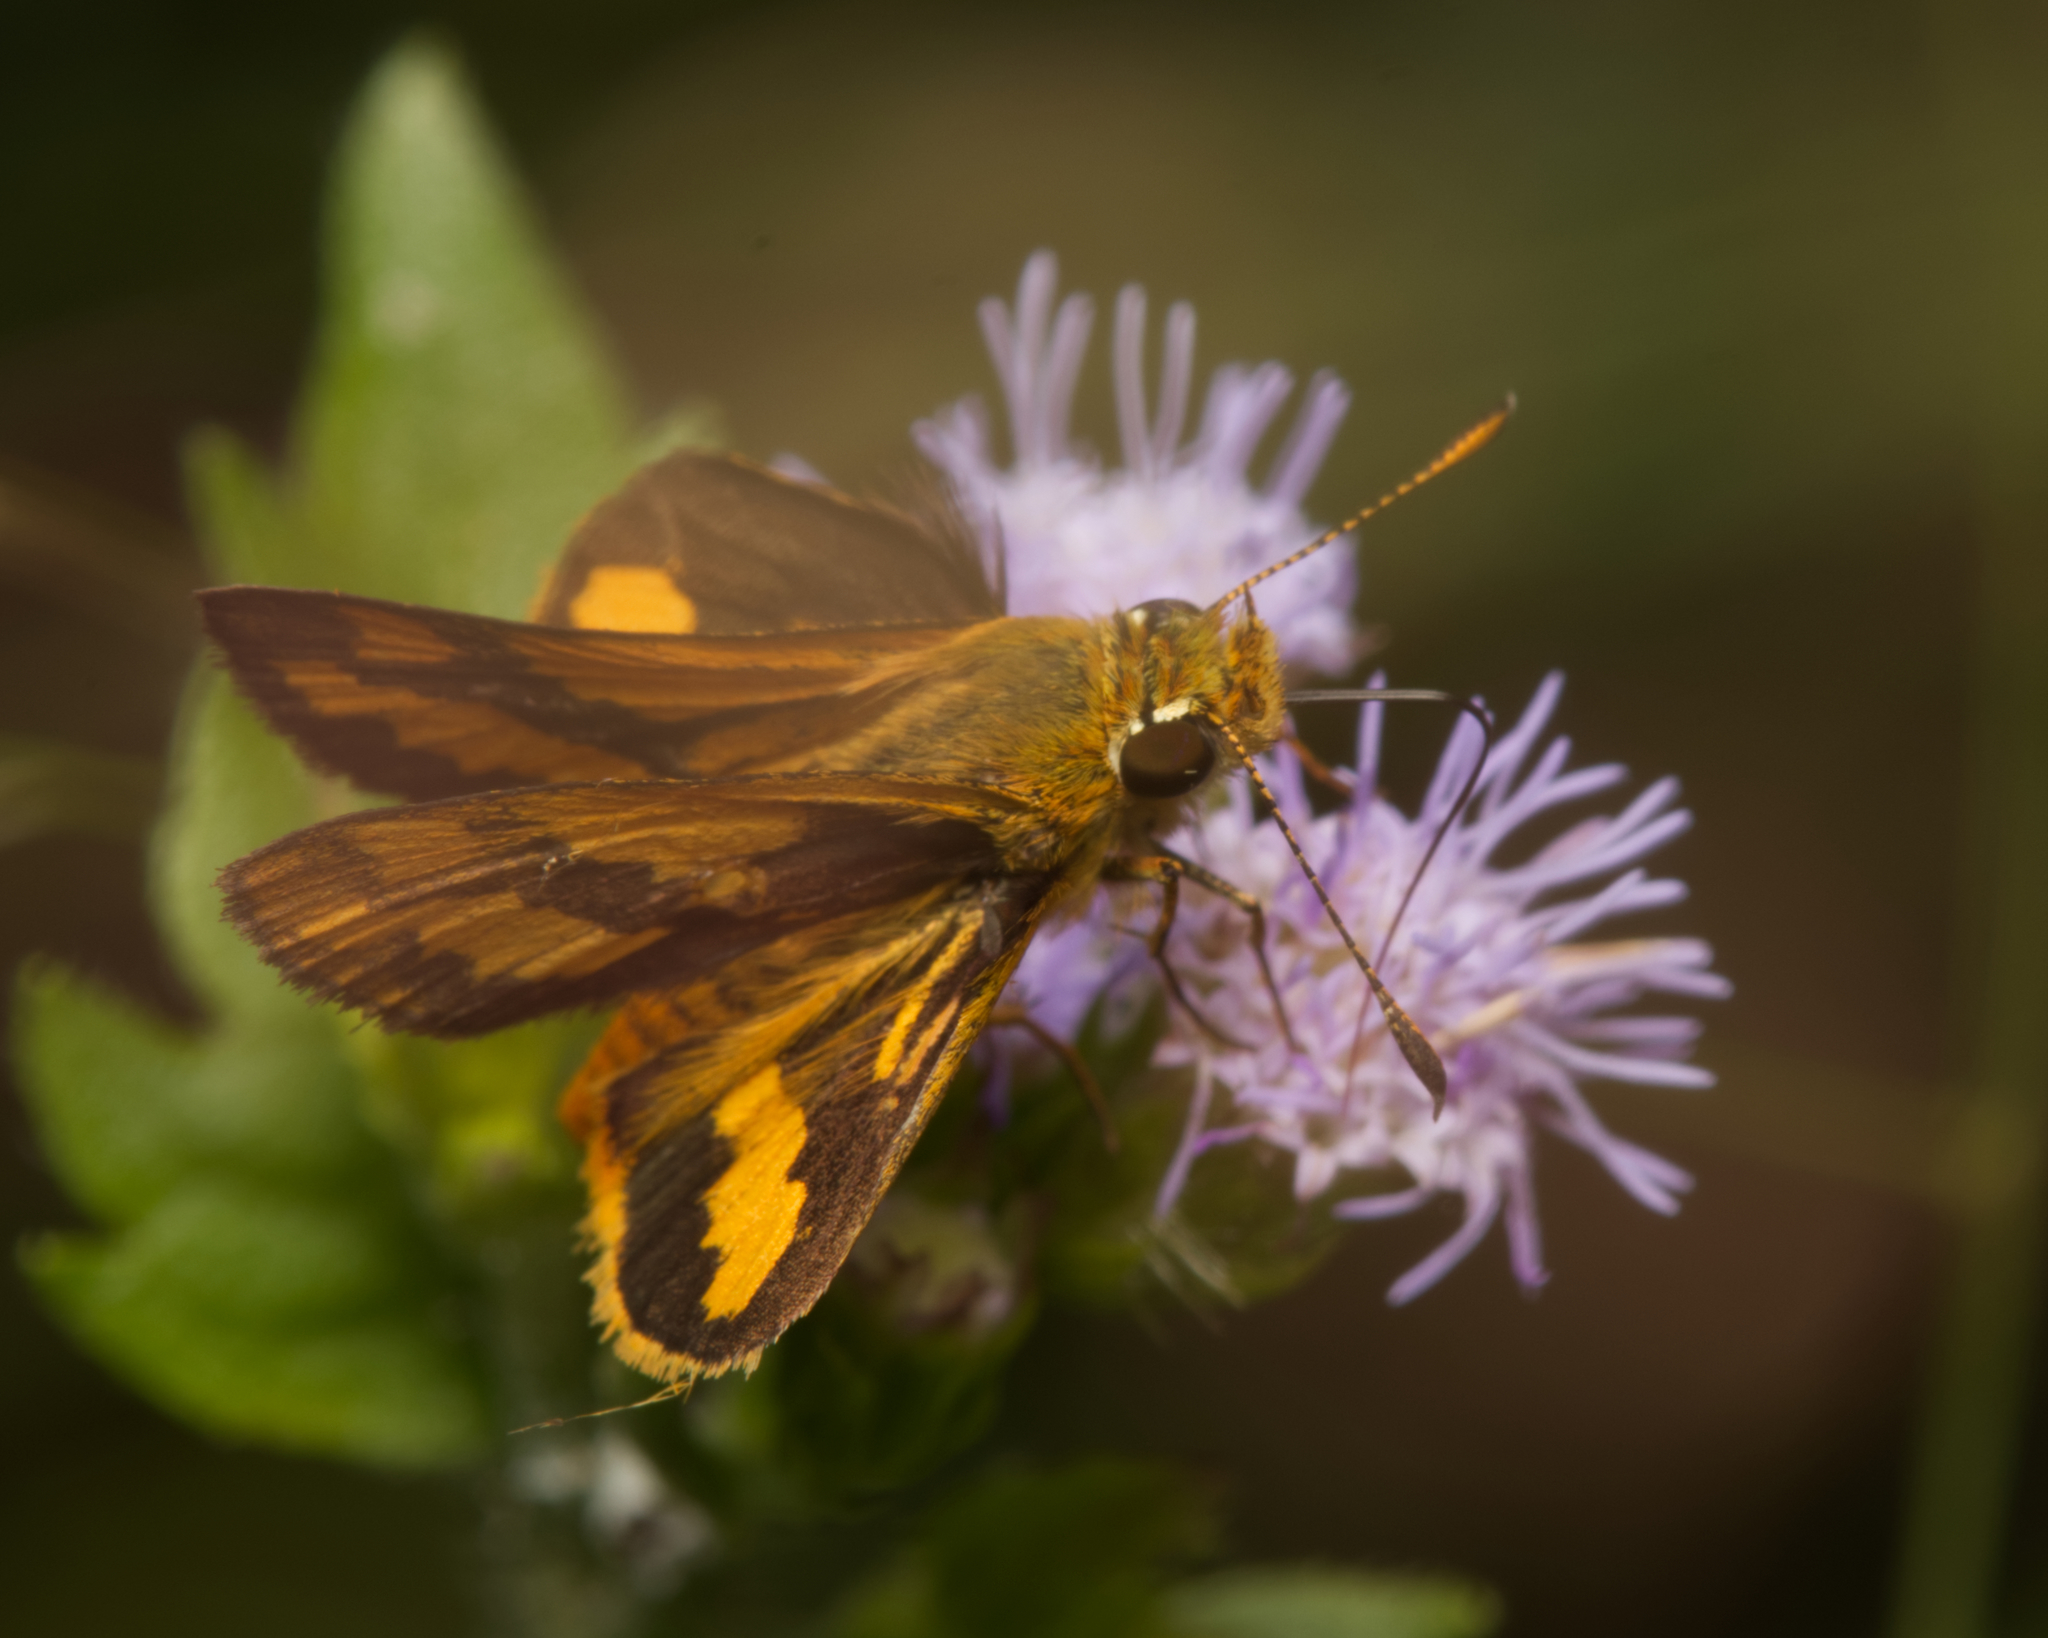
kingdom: Animalia
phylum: Arthropoda
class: Insecta
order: Lepidoptera
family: Hesperiidae
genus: Ocybadistes
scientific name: Ocybadistes flavovittata
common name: Narrow-brand grass-dart
